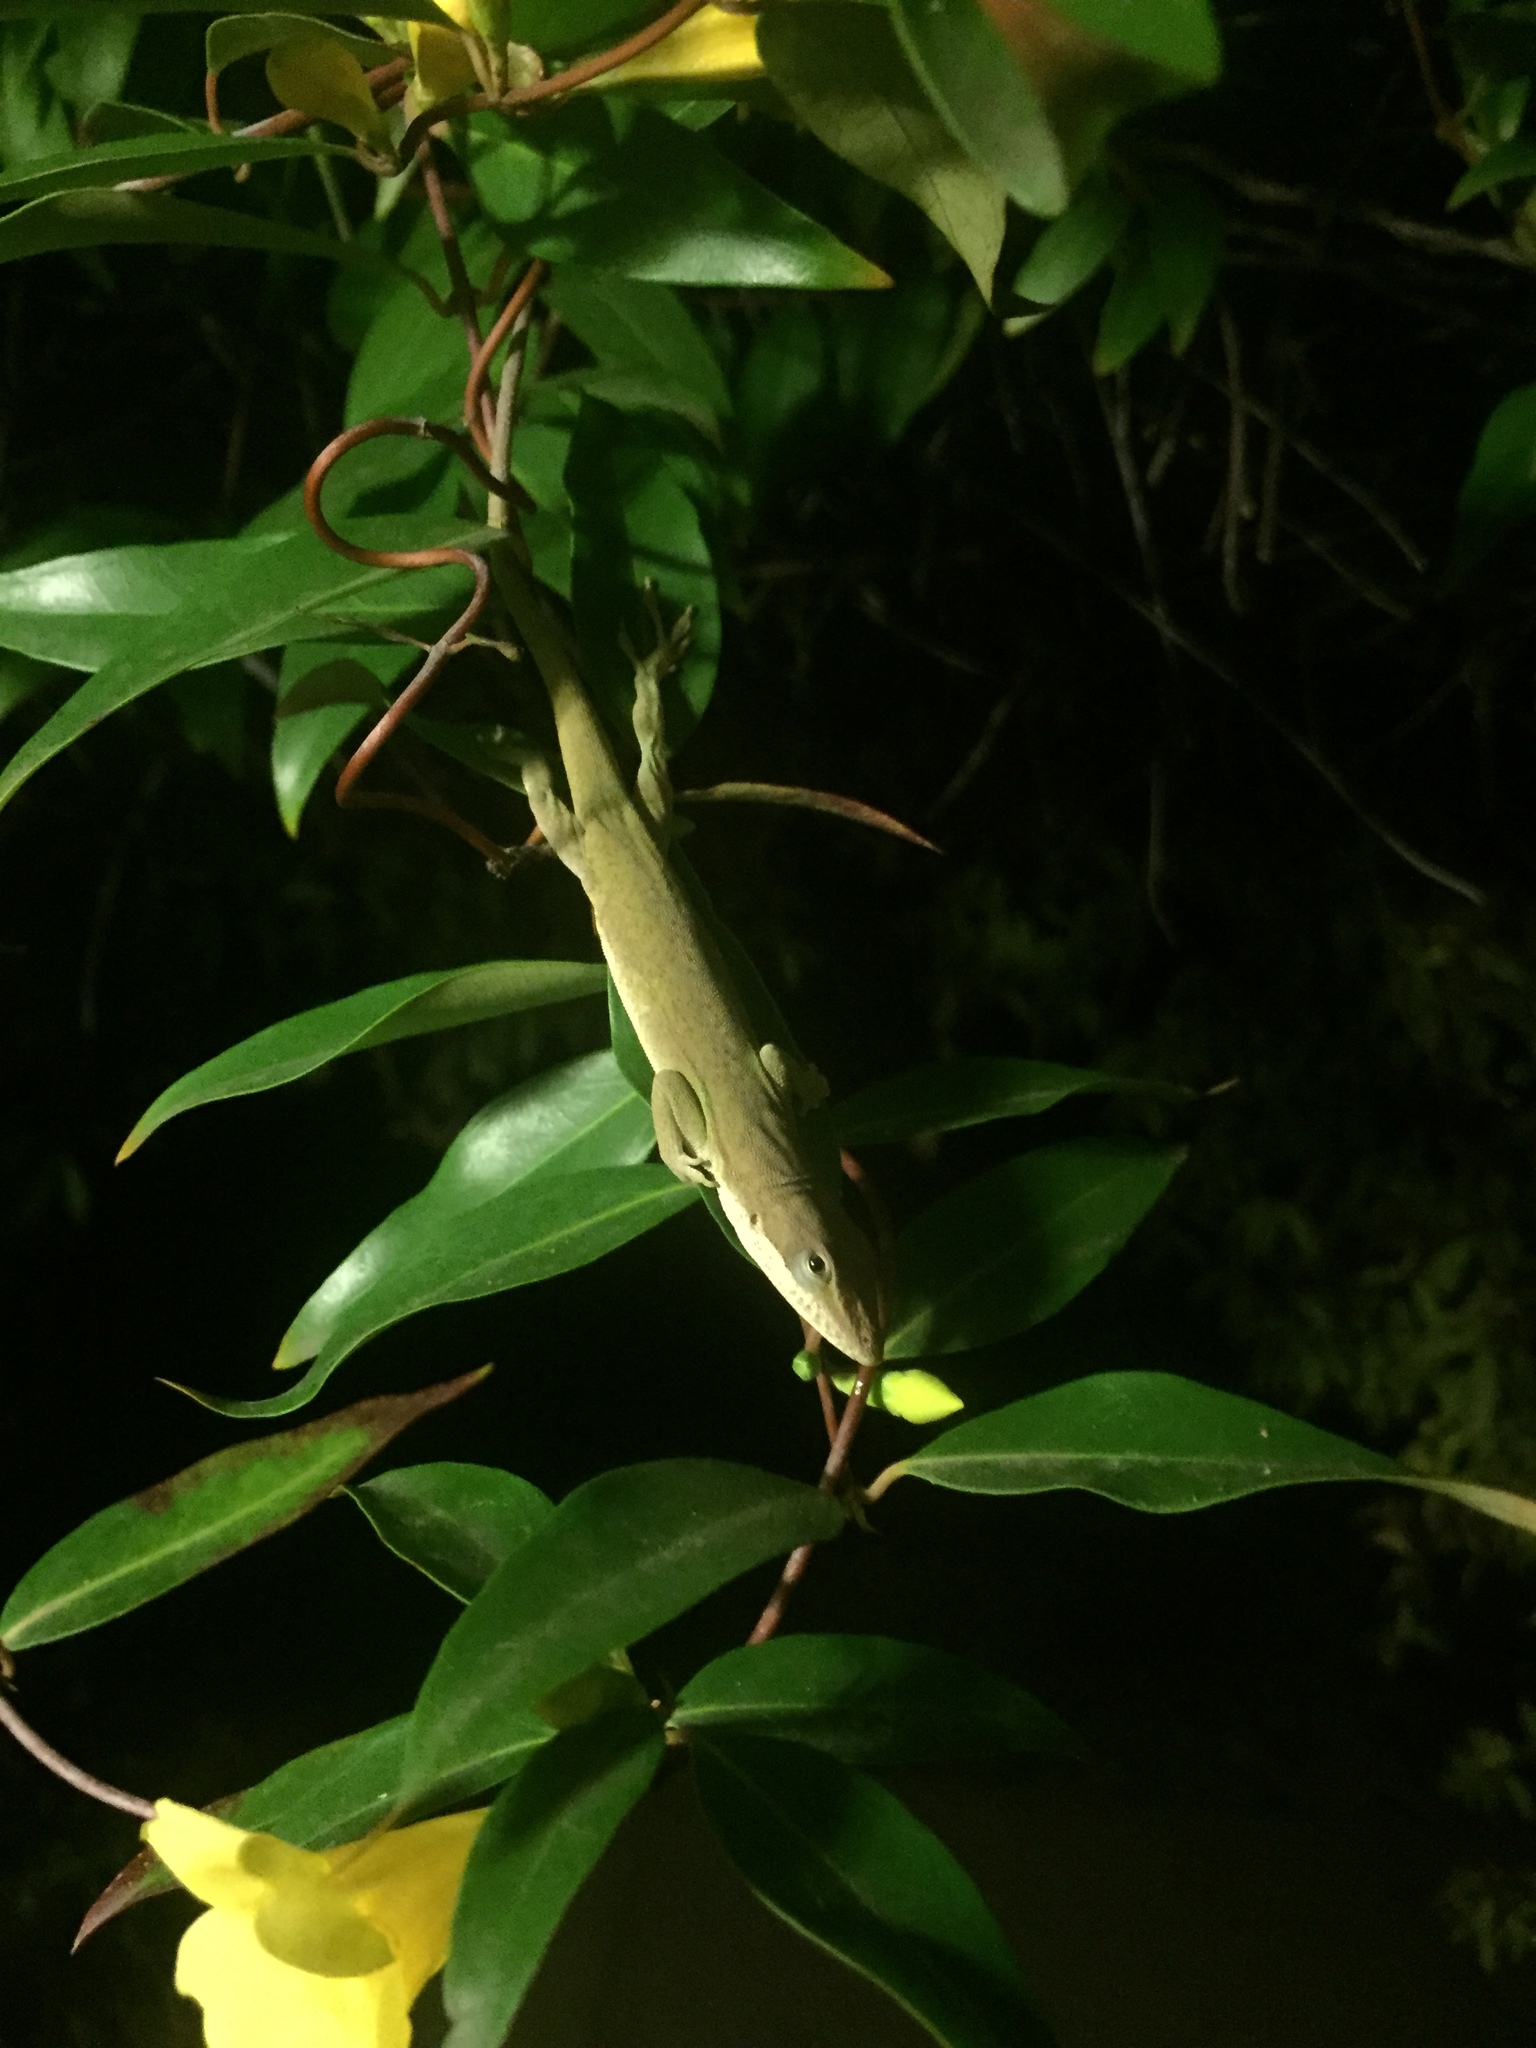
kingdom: Animalia
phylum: Chordata
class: Squamata
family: Dactyloidae
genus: Anolis
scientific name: Anolis carolinensis
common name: Green anole
